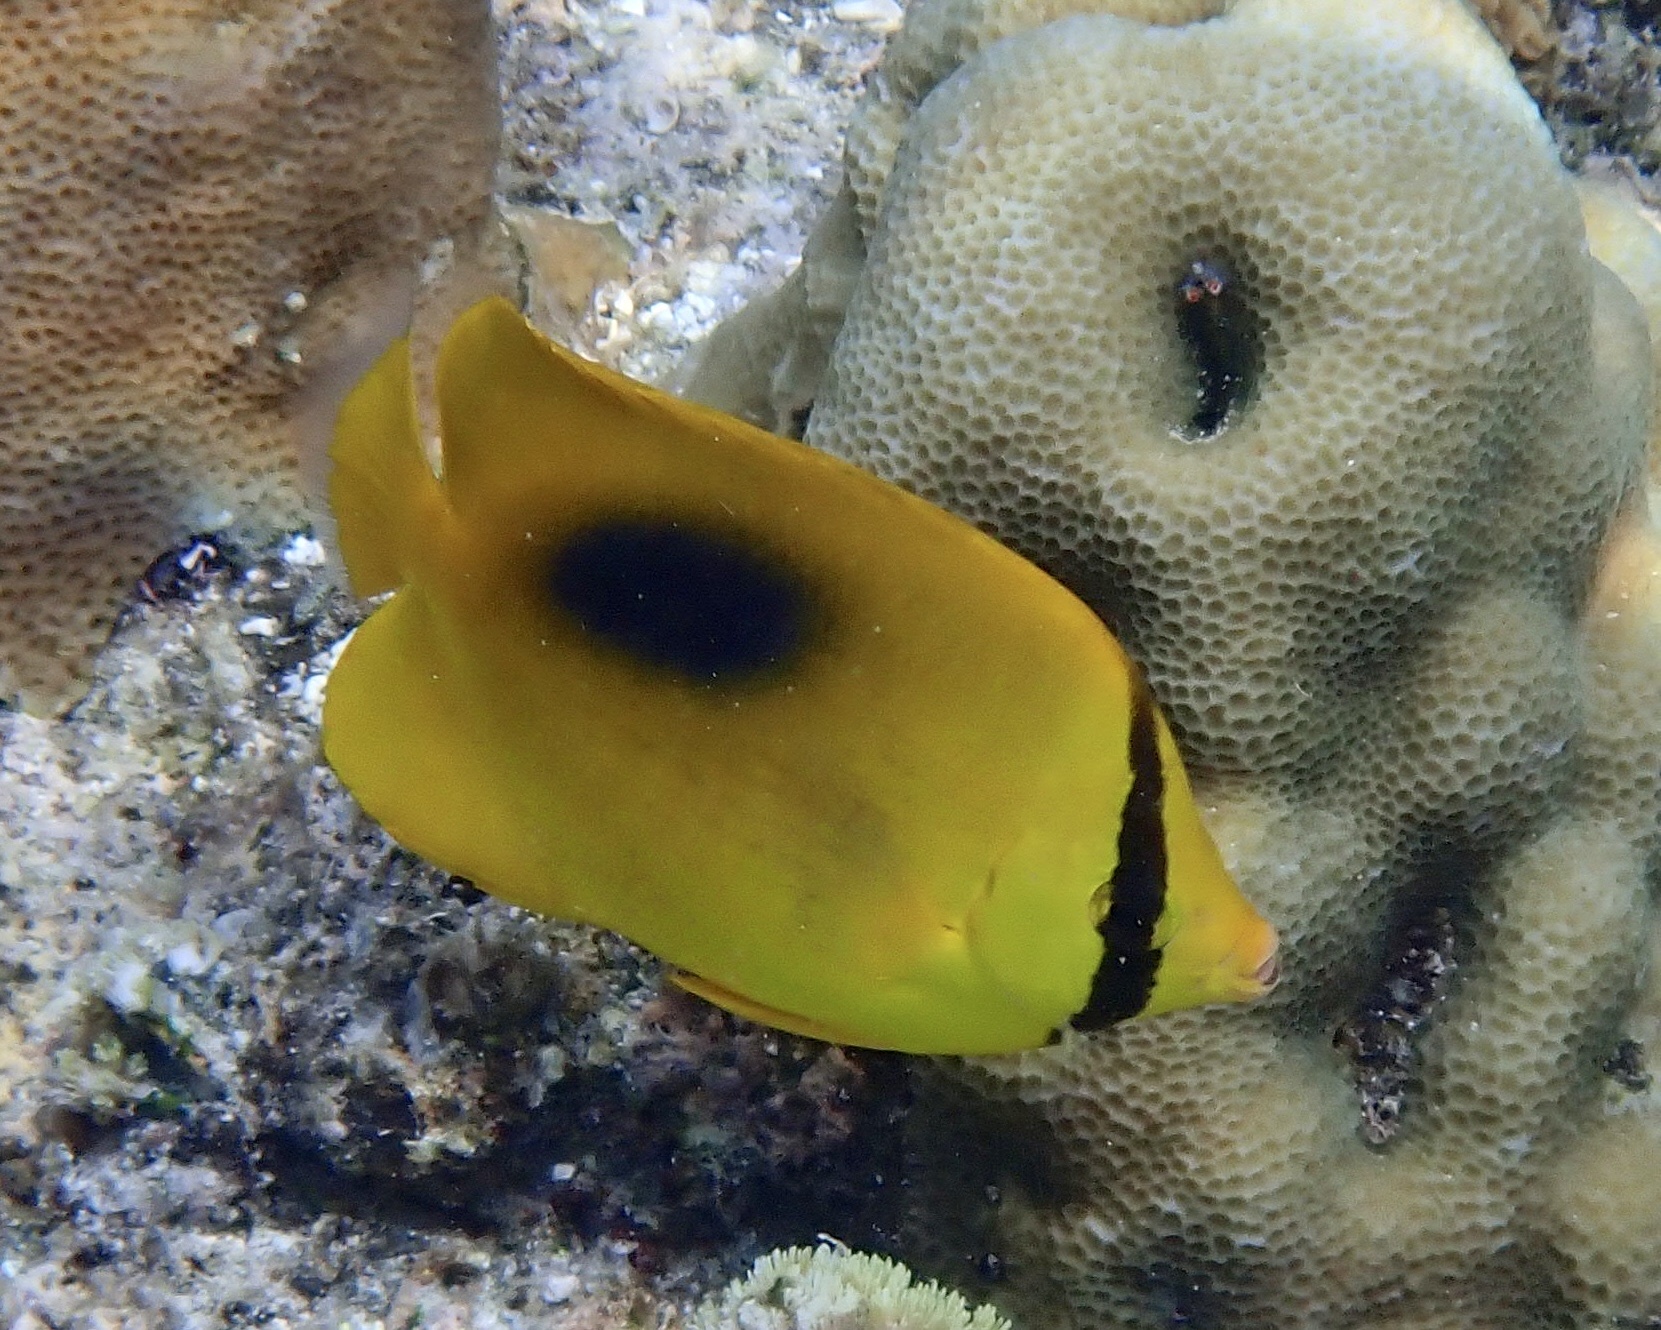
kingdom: Animalia
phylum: Chordata
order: Perciformes
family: Chaetodontidae
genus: Chaetodon
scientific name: Chaetodon speculum
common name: Mirror butterflyfish
